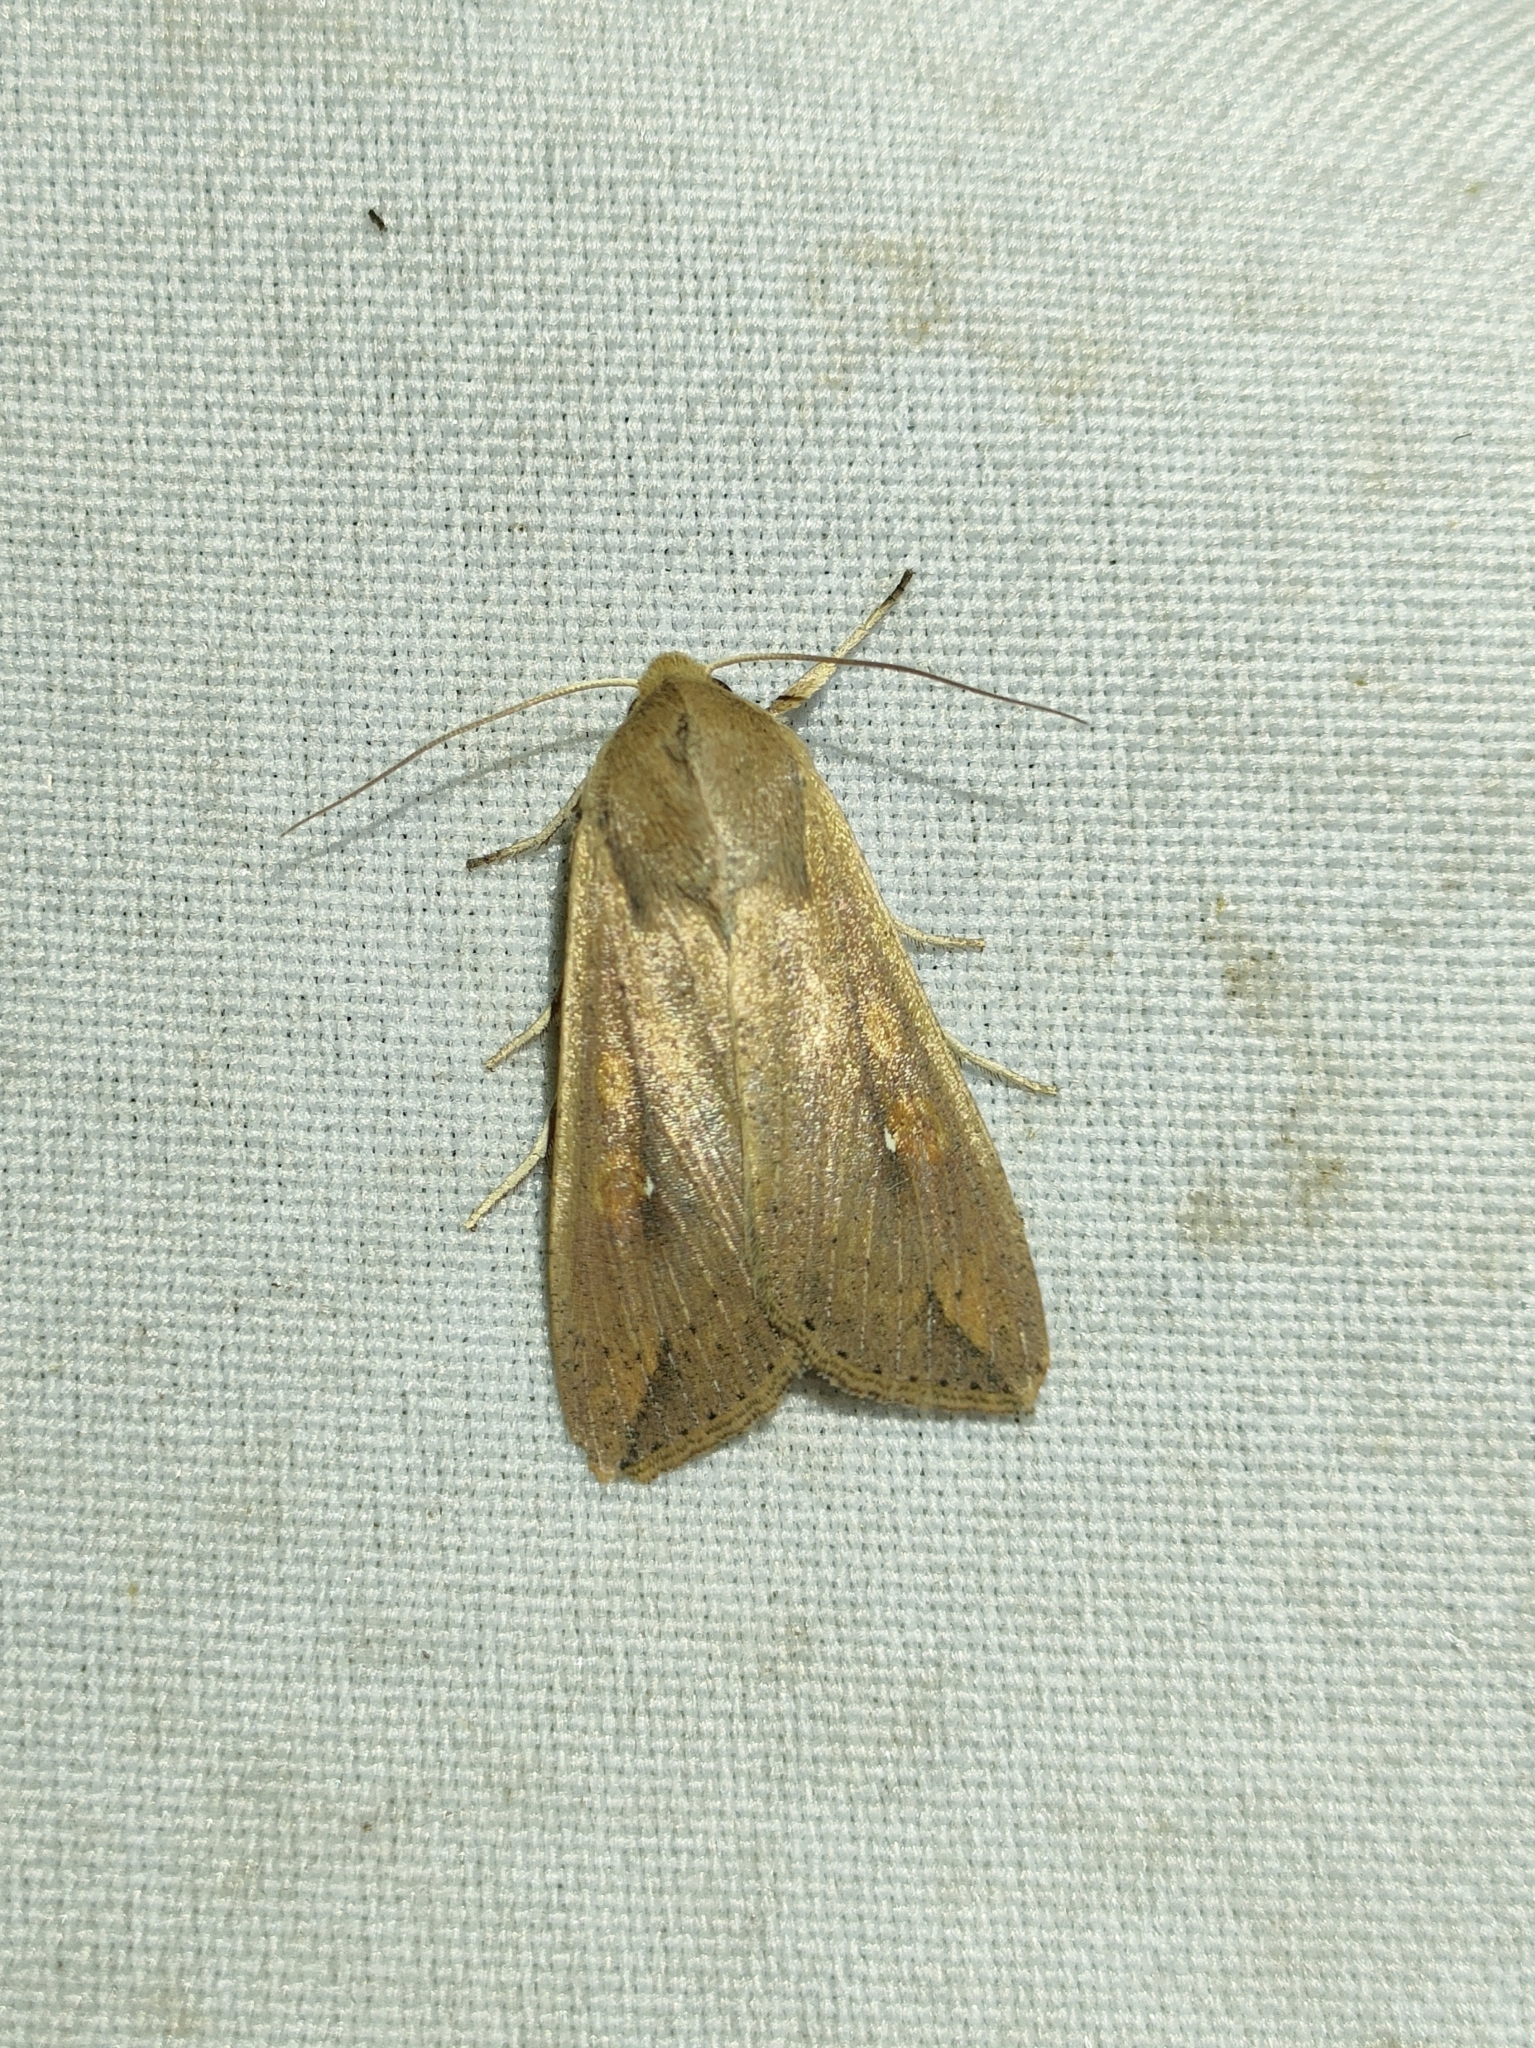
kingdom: Animalia
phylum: Arthropoda
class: Insecta
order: Lepidoptera
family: Noctuidae
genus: Mythimna
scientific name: Mythimna unipuncta
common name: White-speck
